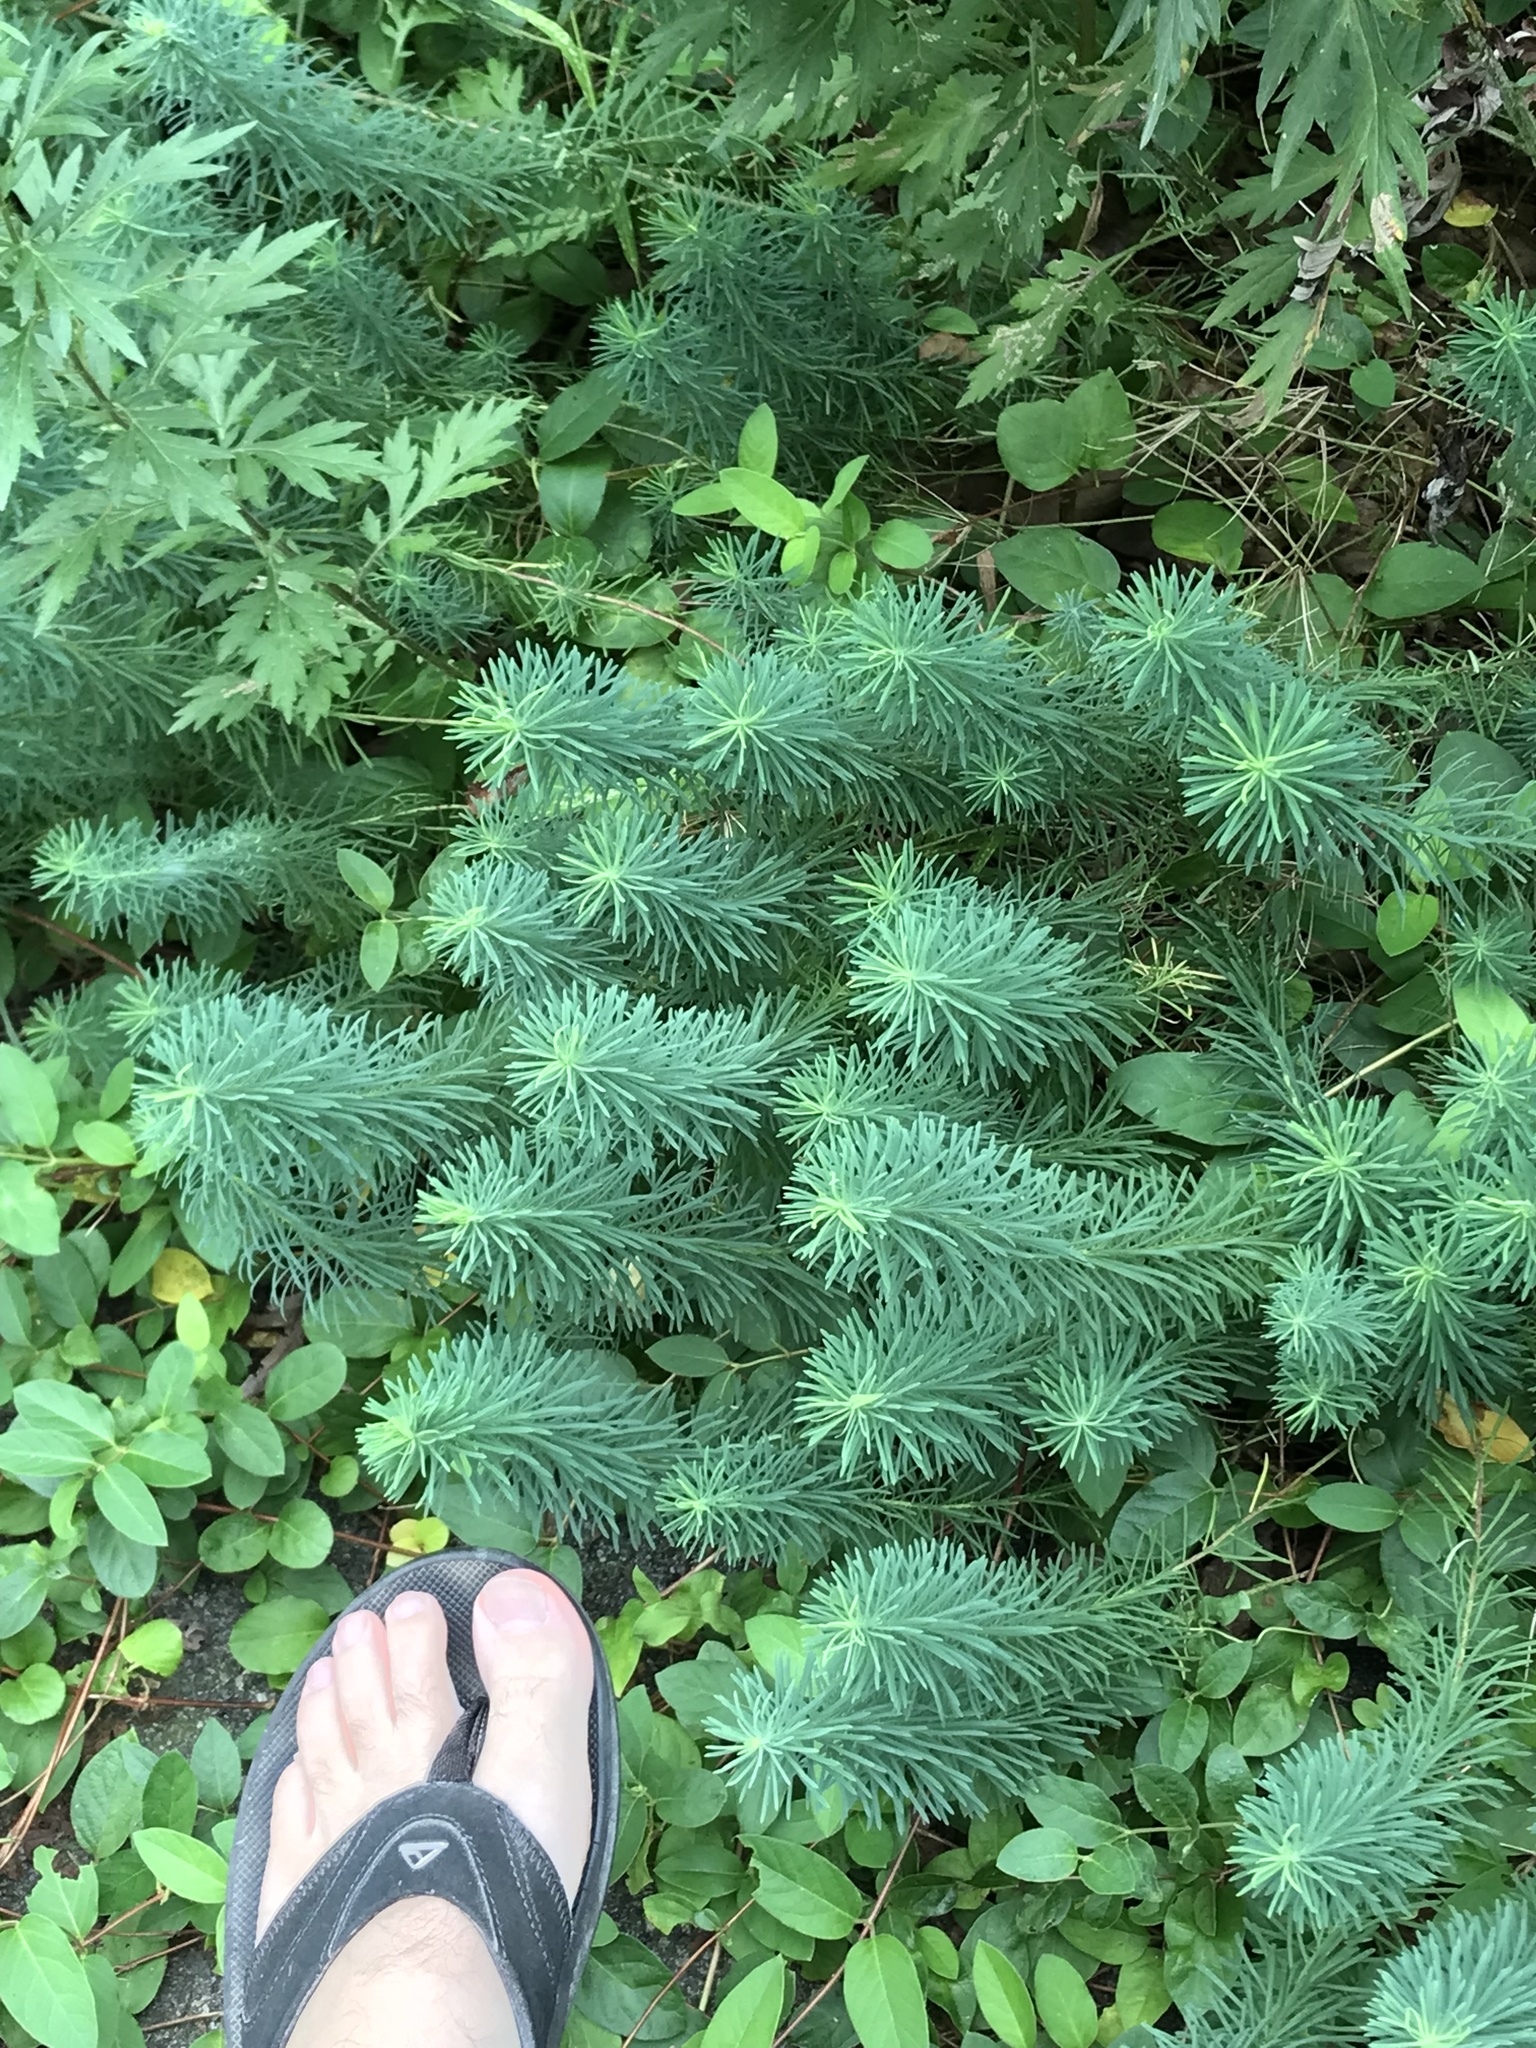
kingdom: Plantae
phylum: Tracheophyta
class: Magnoliopsida
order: Malpighiales
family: Euphorbiaceae
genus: Euphorbia
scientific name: Euphorbia cyparissias
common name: Cypress spurge
